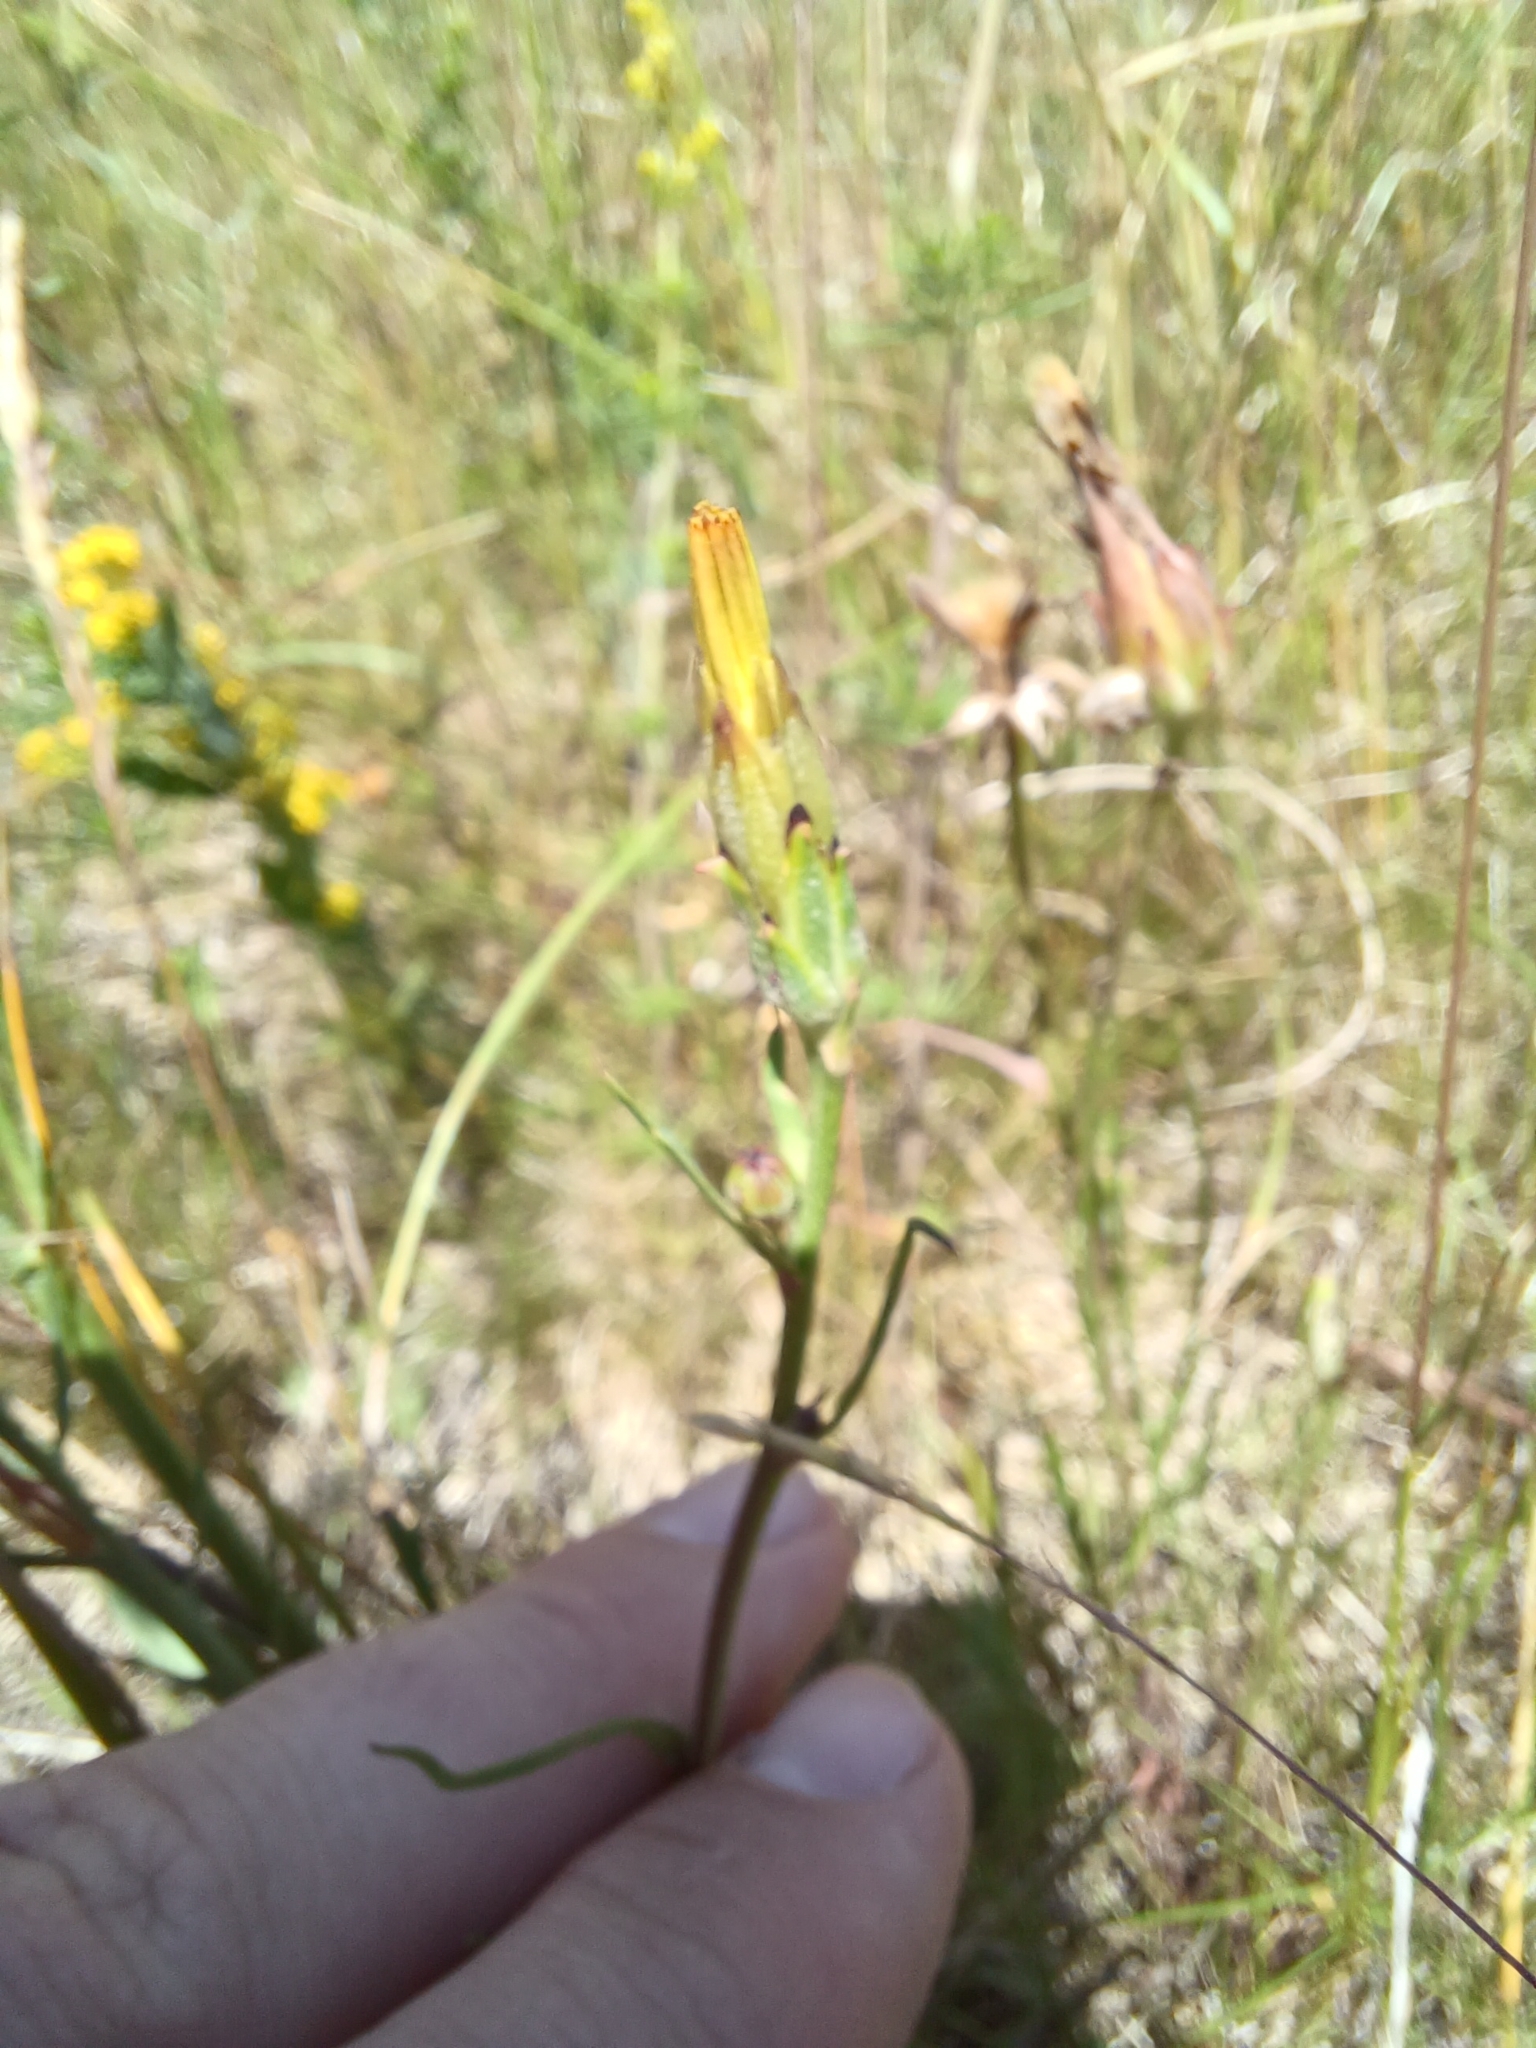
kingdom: Plantae
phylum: Tracheophyta
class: Magnoliopsida
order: Asterales
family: Asteraceae
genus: Scorzonera
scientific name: Scorzonera cana
